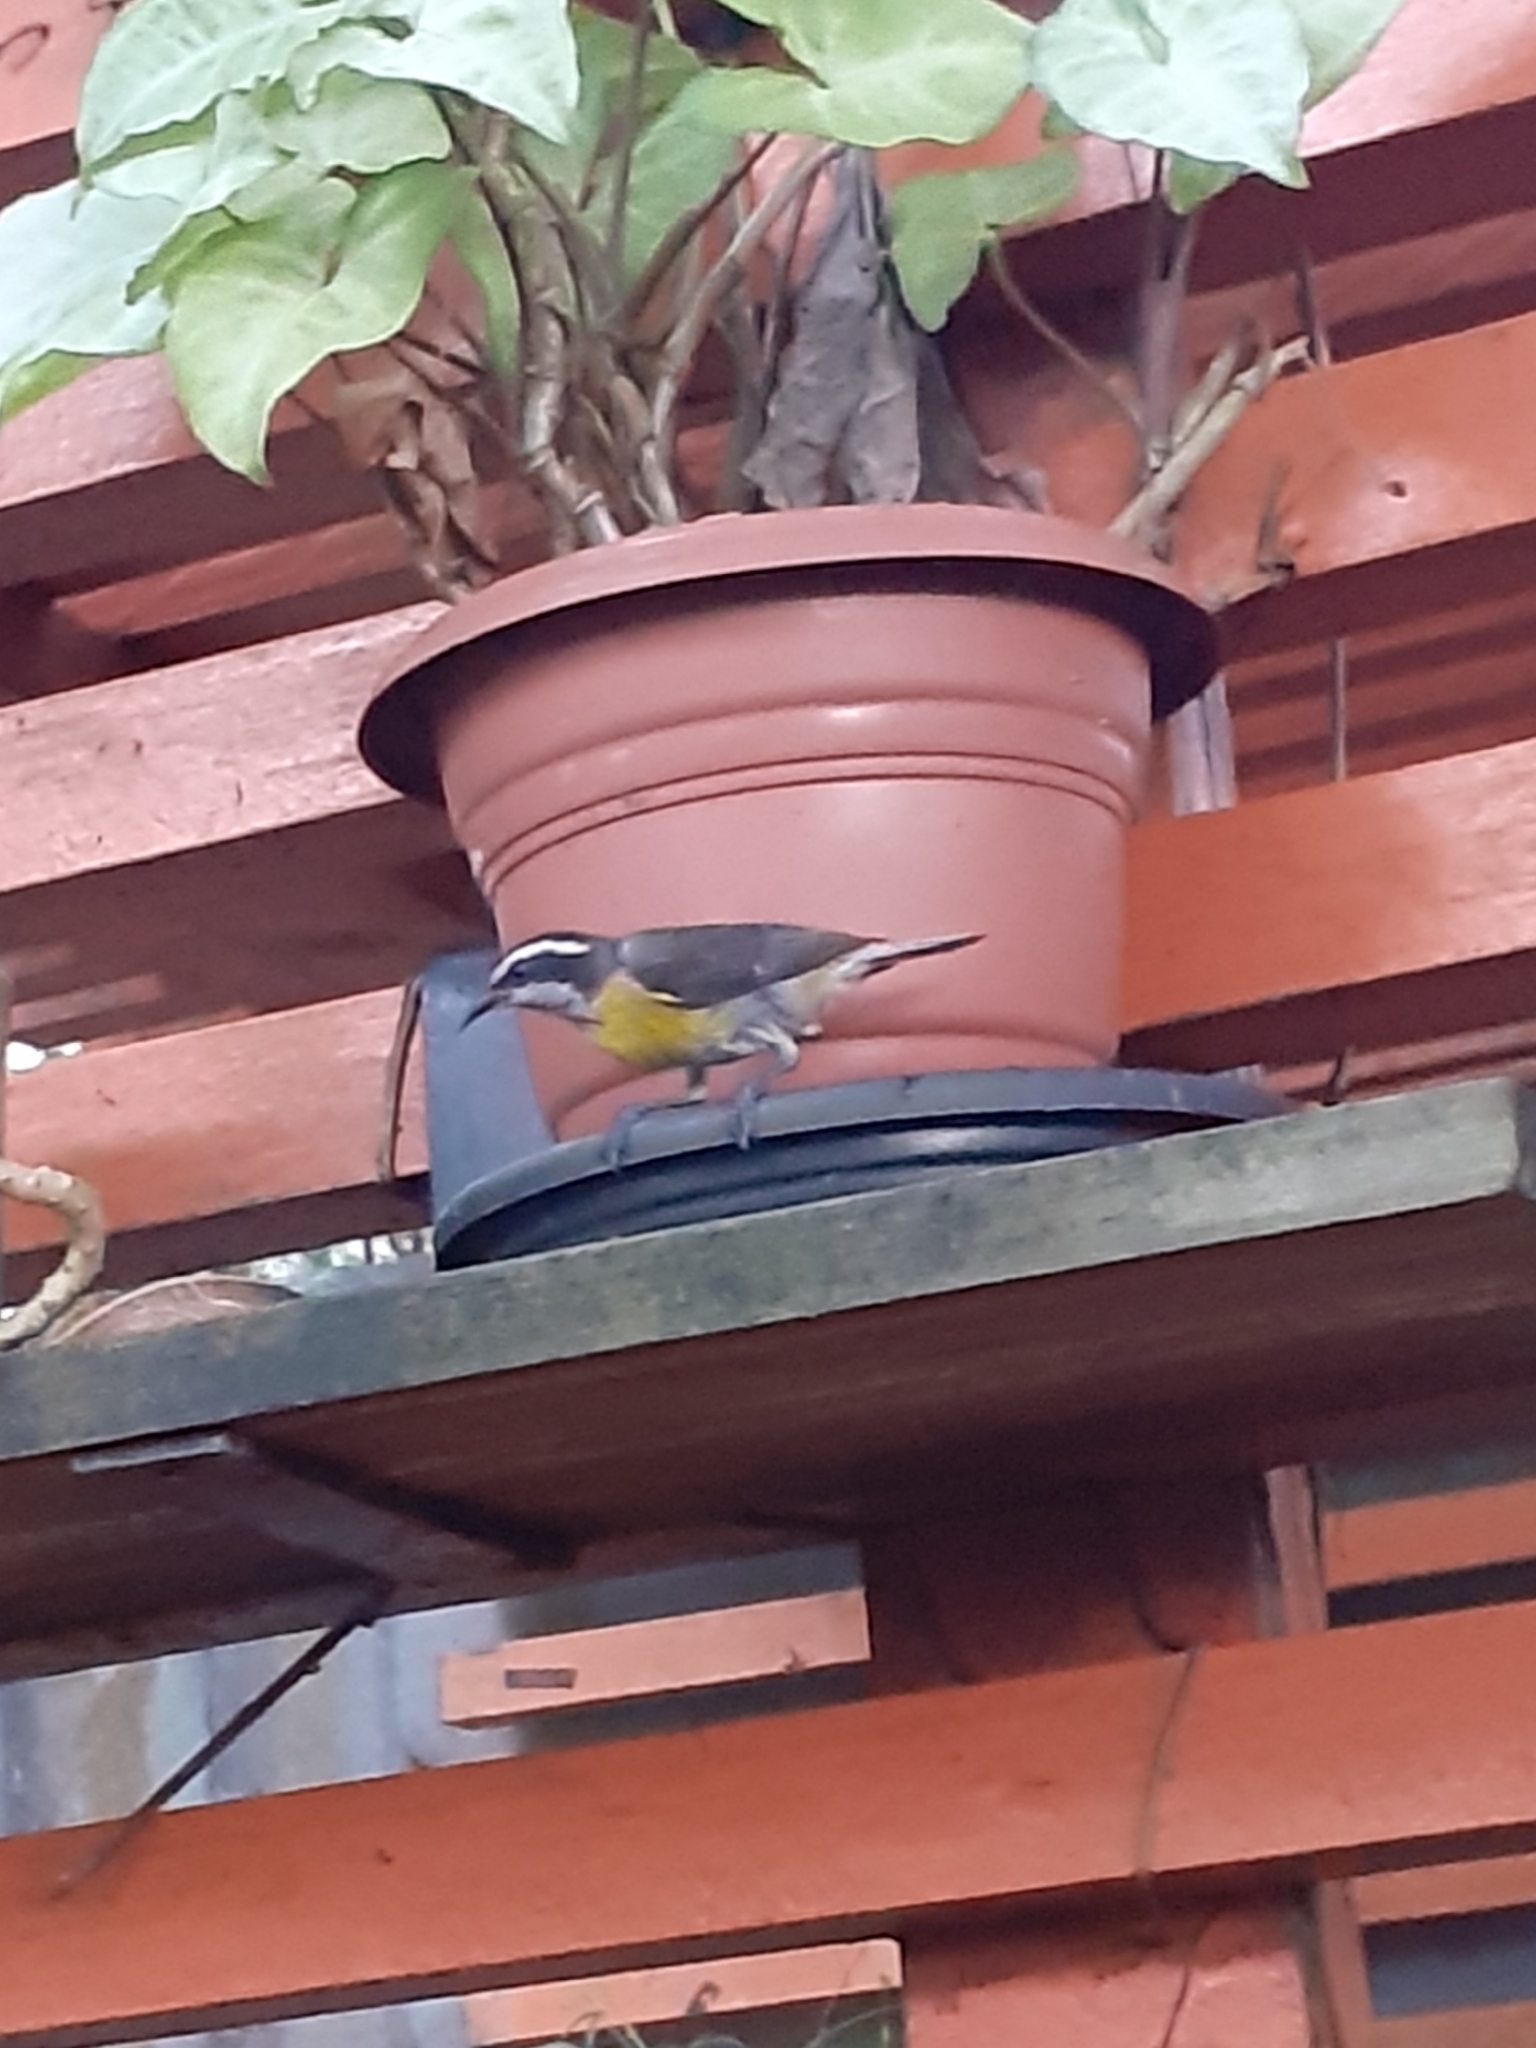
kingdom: Animalia
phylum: Chordata
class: Aves
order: Passeriformes
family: Thraupidae
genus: Coereba
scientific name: Coereba flaveola
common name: Bananaquit
